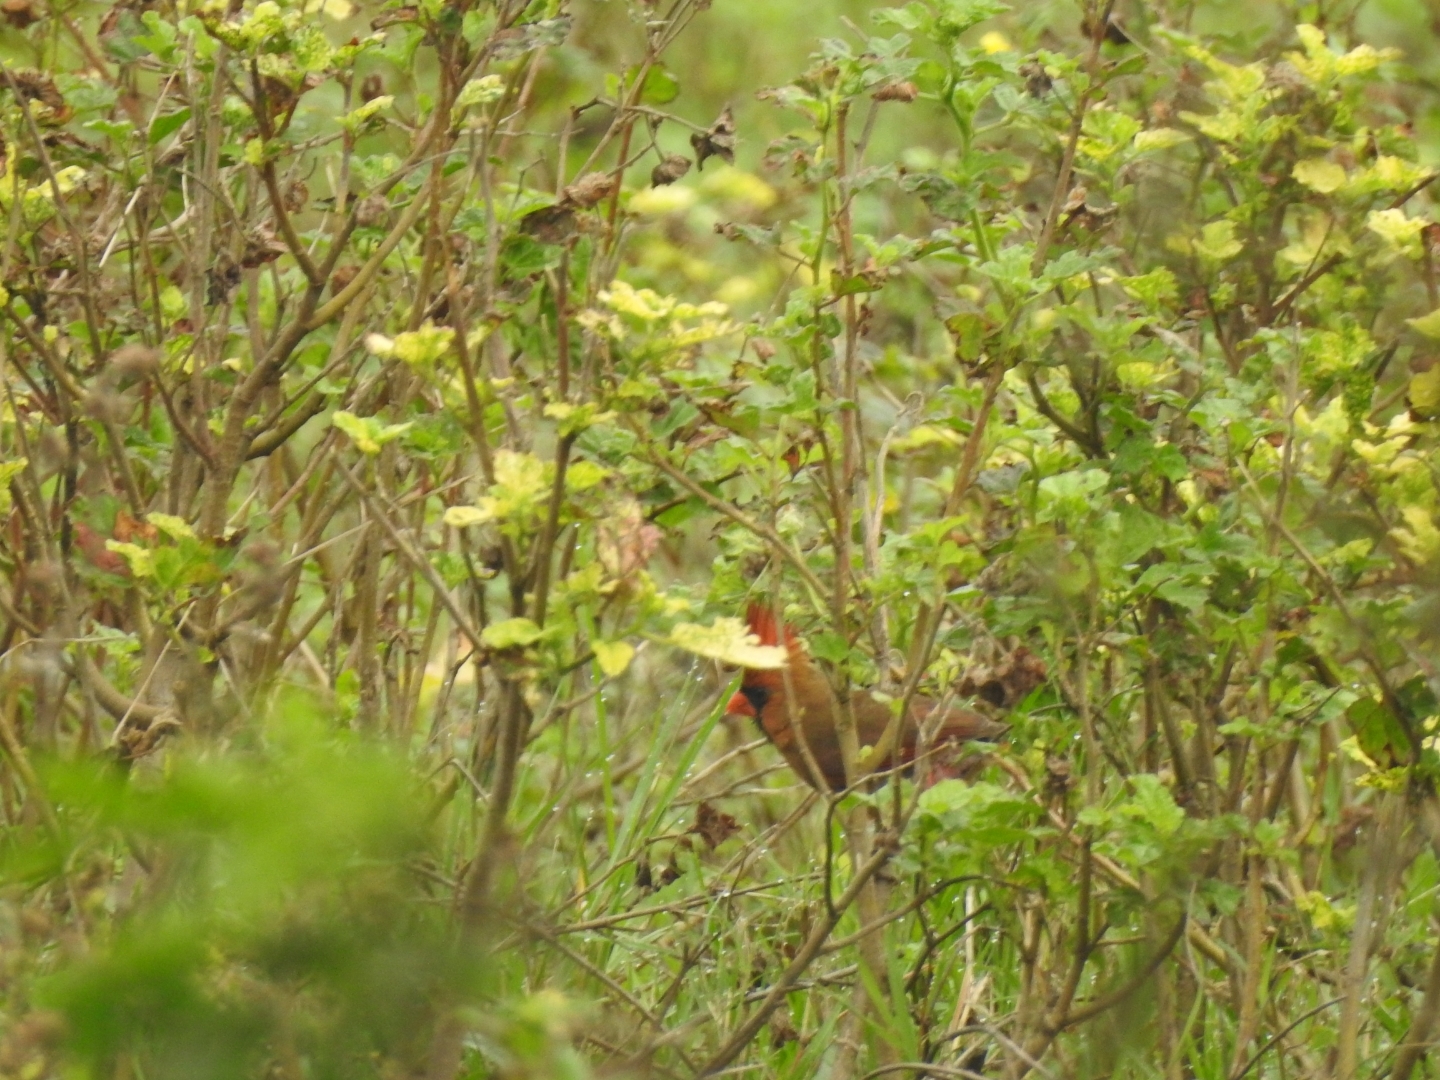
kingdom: Animalia
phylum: Chordata
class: Aves
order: Passeriformes
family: Cardinalidae
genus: Cardinalis
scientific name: Cardinalis cardinalis
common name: Northern cardinal
